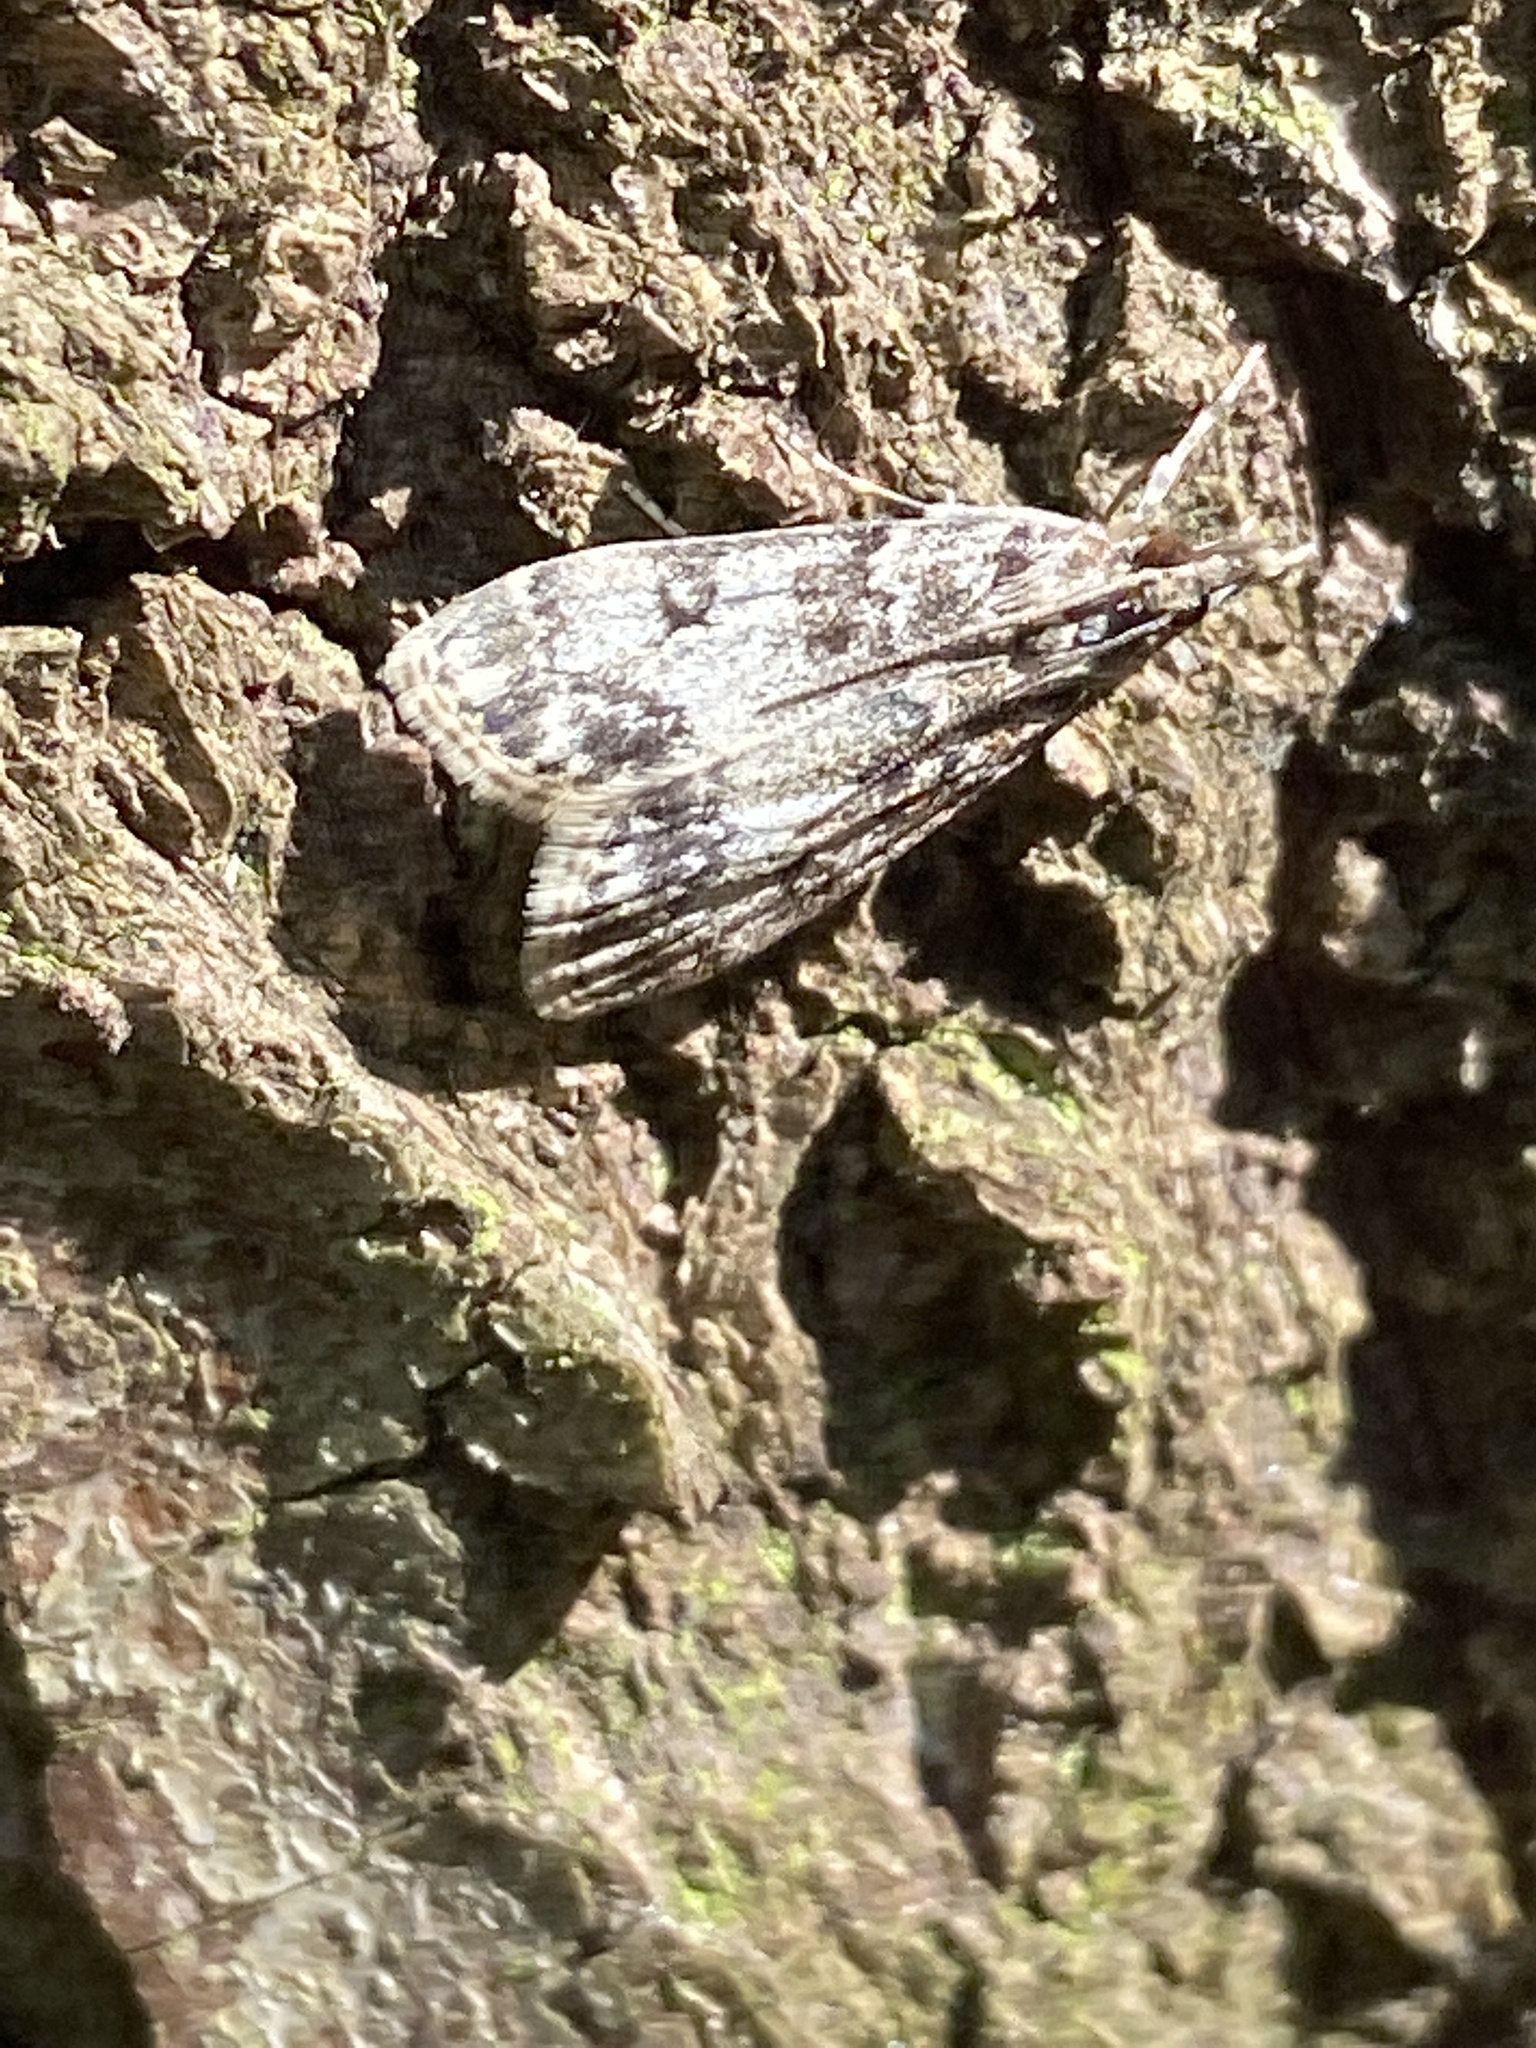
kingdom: Animalia
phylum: Arthropoda
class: Insecta
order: Lepidoptera
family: Crambidae
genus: Eudonia
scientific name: Eudonia lacustrata
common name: Little grey
